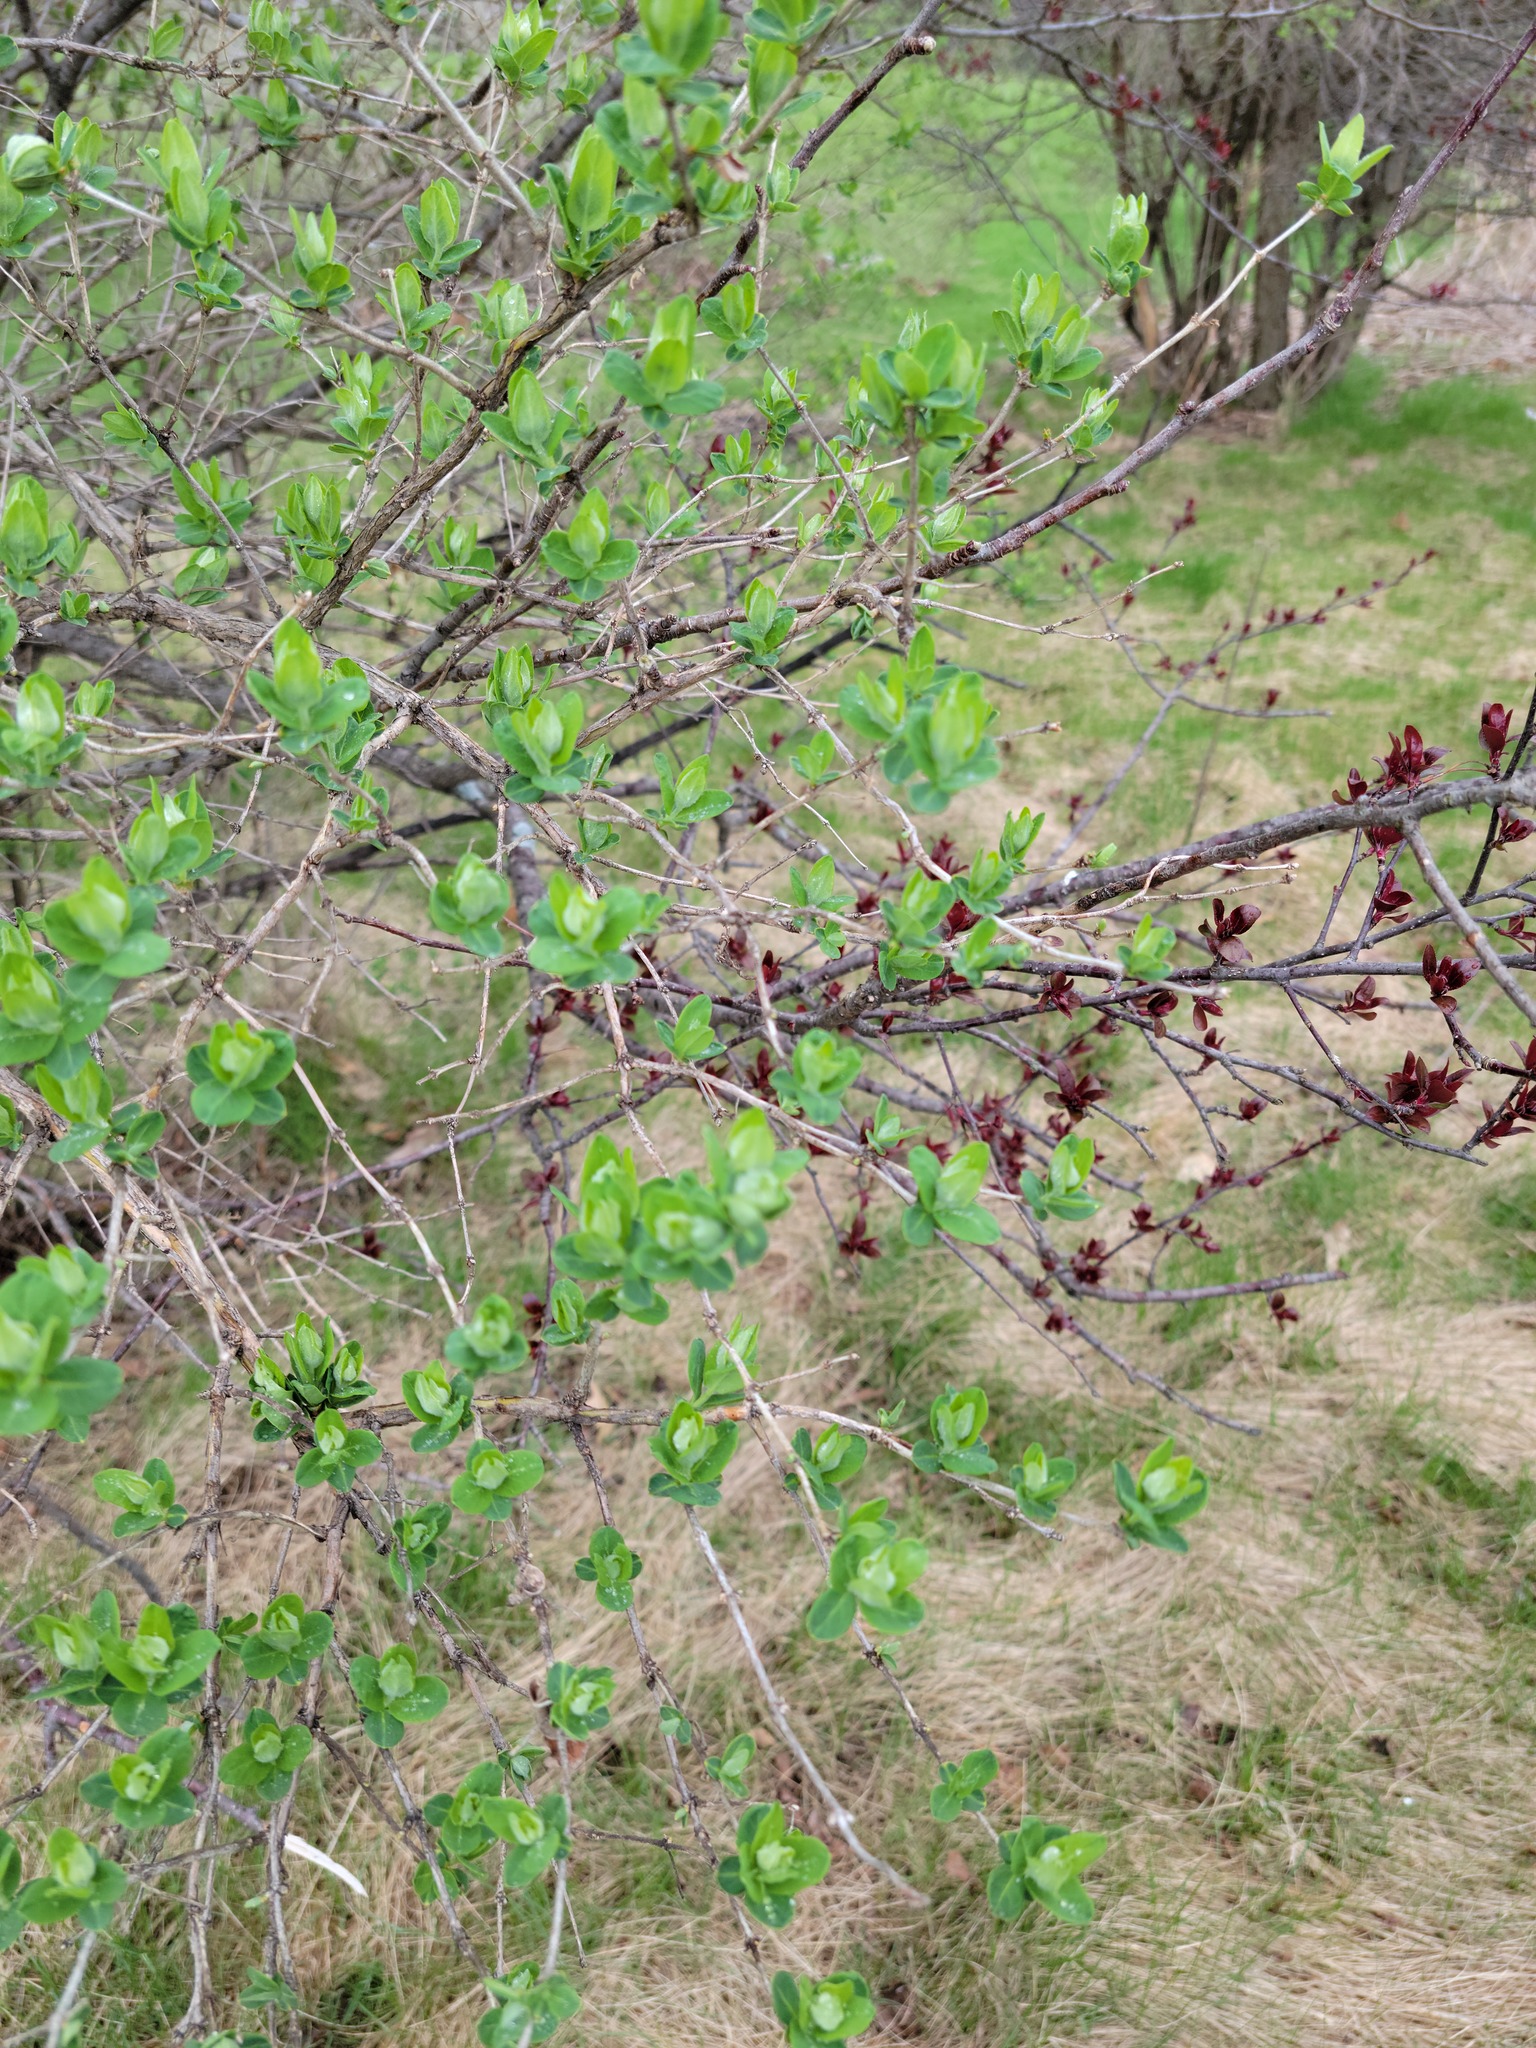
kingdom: Plantae
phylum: Tracheophyta
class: Magnoliopsida
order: Dipsacales
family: Caprifoliaceae
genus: Lonicera
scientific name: Lonicera
